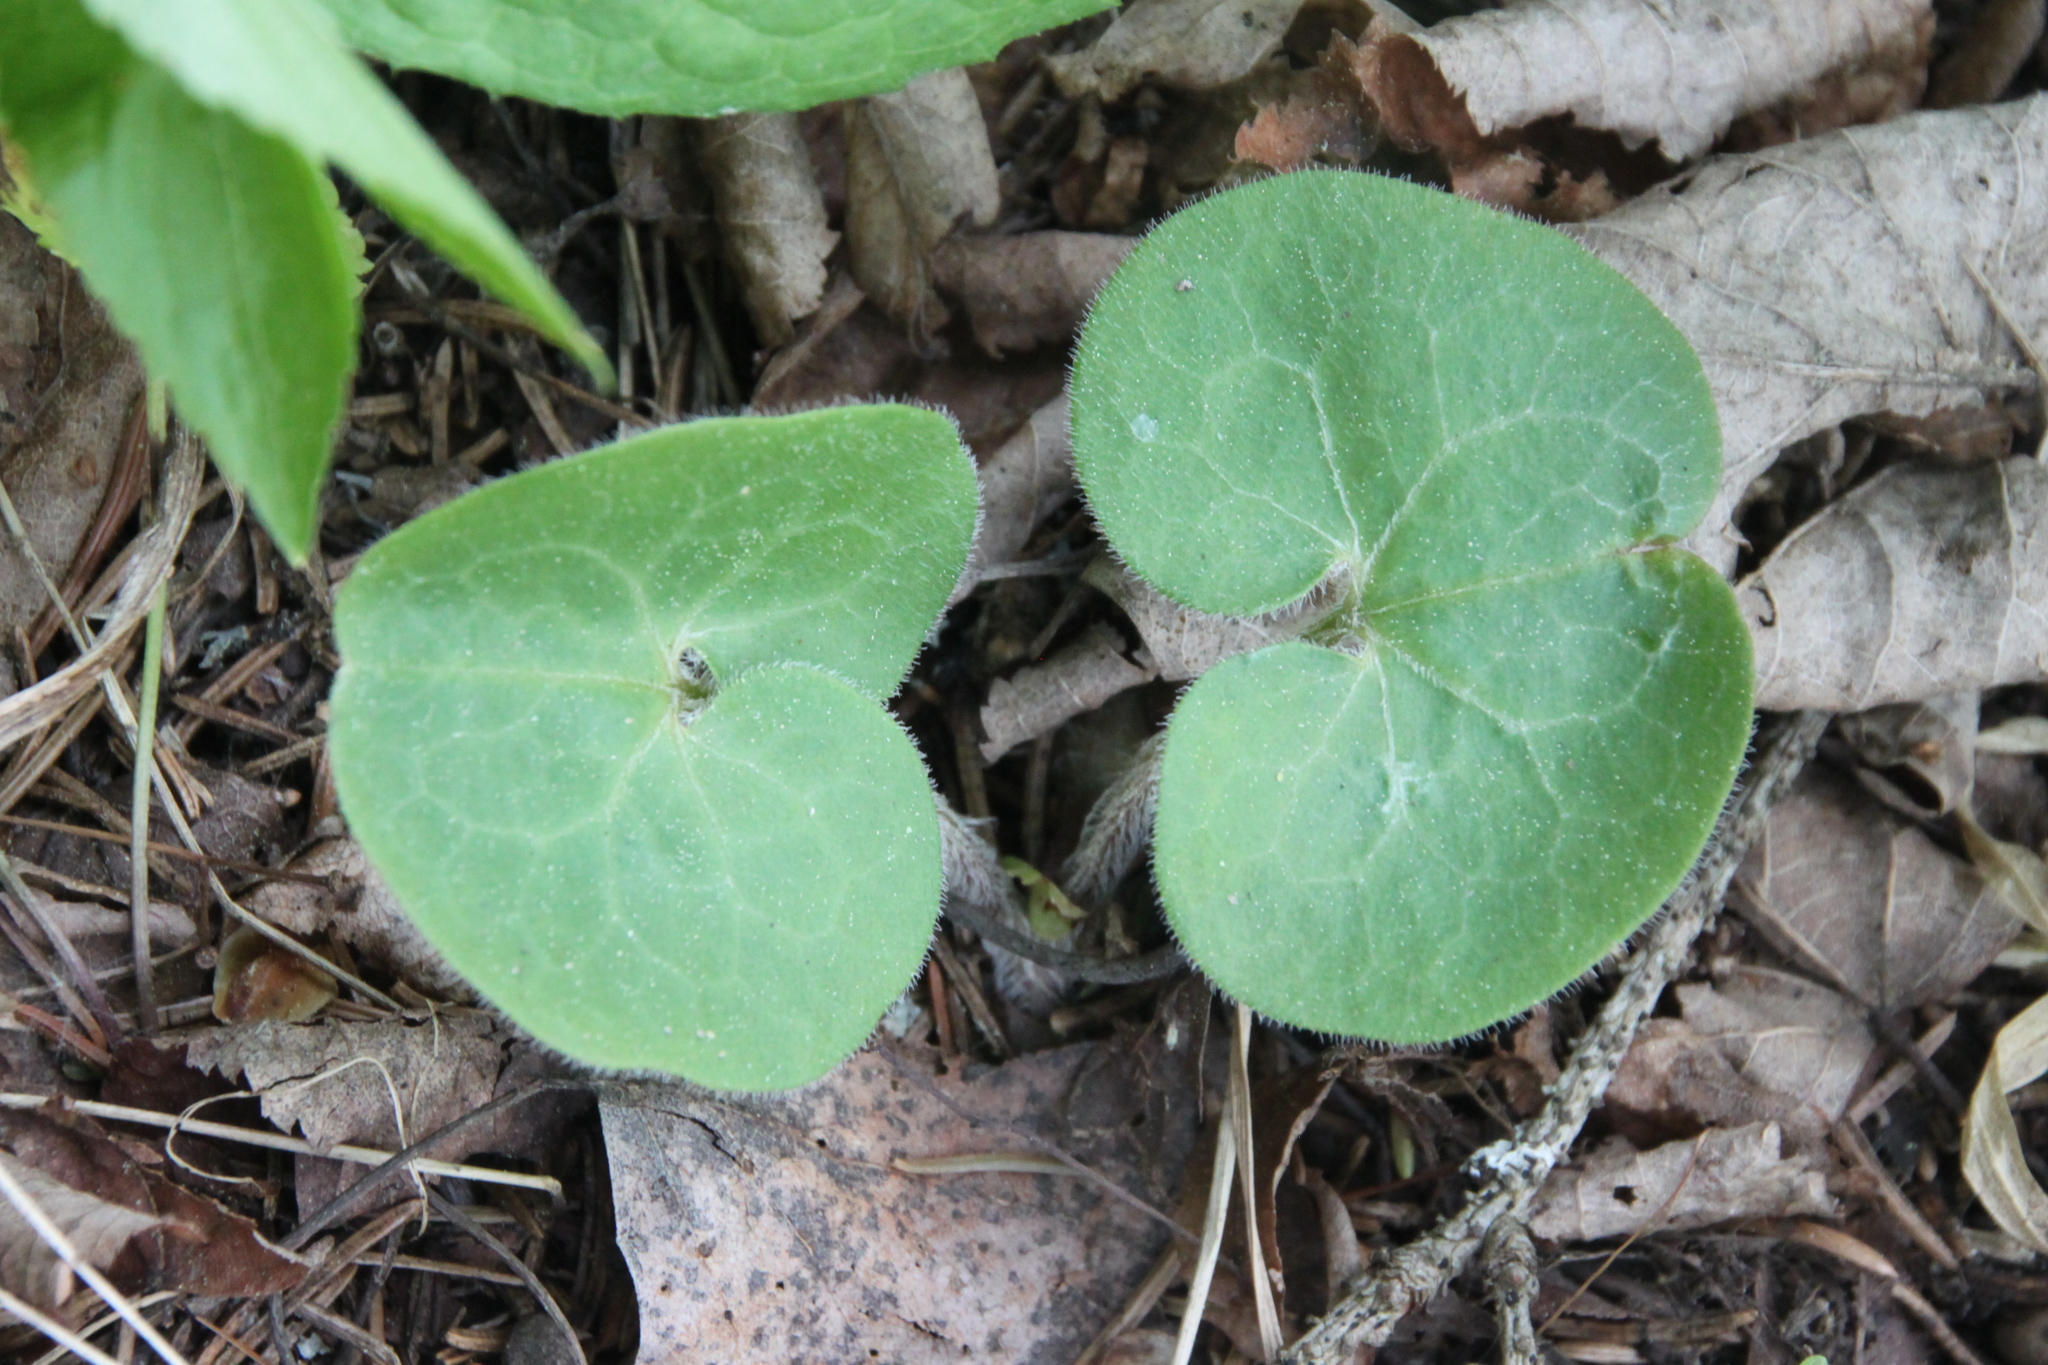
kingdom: Plantae
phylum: Tracheophyta
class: Magnoliopsida
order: Piperales
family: Aristolochiaceae
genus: Asarum
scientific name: Asarum europaeum
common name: Asarabacca
